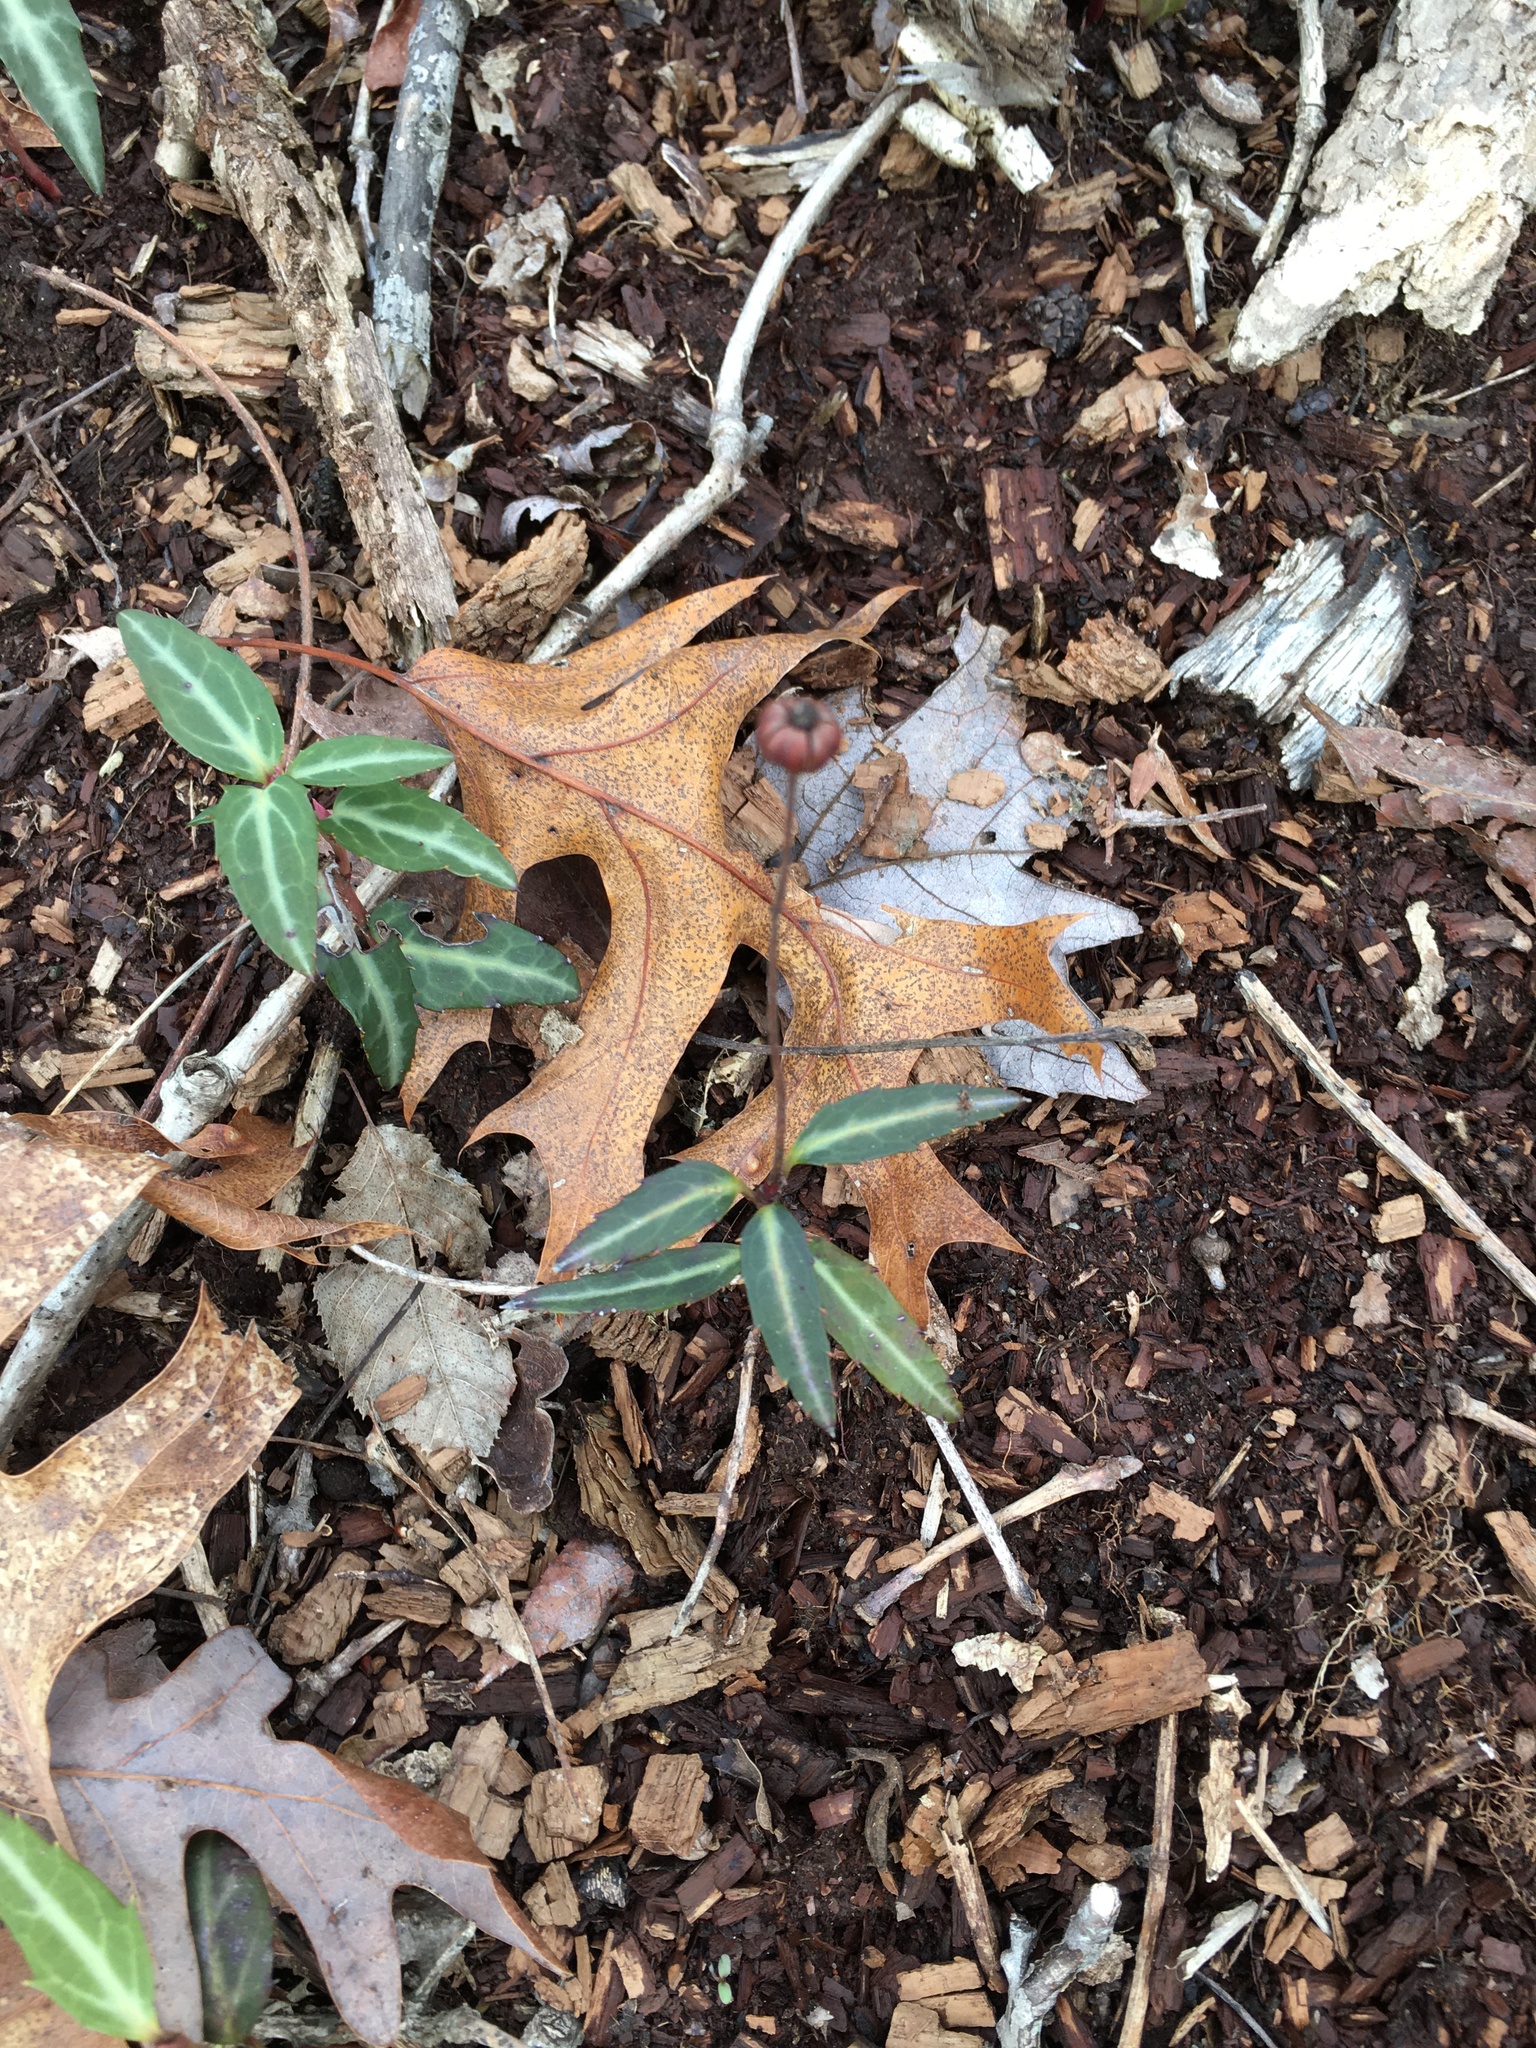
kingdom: Plantae
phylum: Tracheophyta
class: Magnoliopsida
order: Ericales
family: Ericaceae
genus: Chimaphila
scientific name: Chimaphila maculata
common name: Spotted pipsissewa
